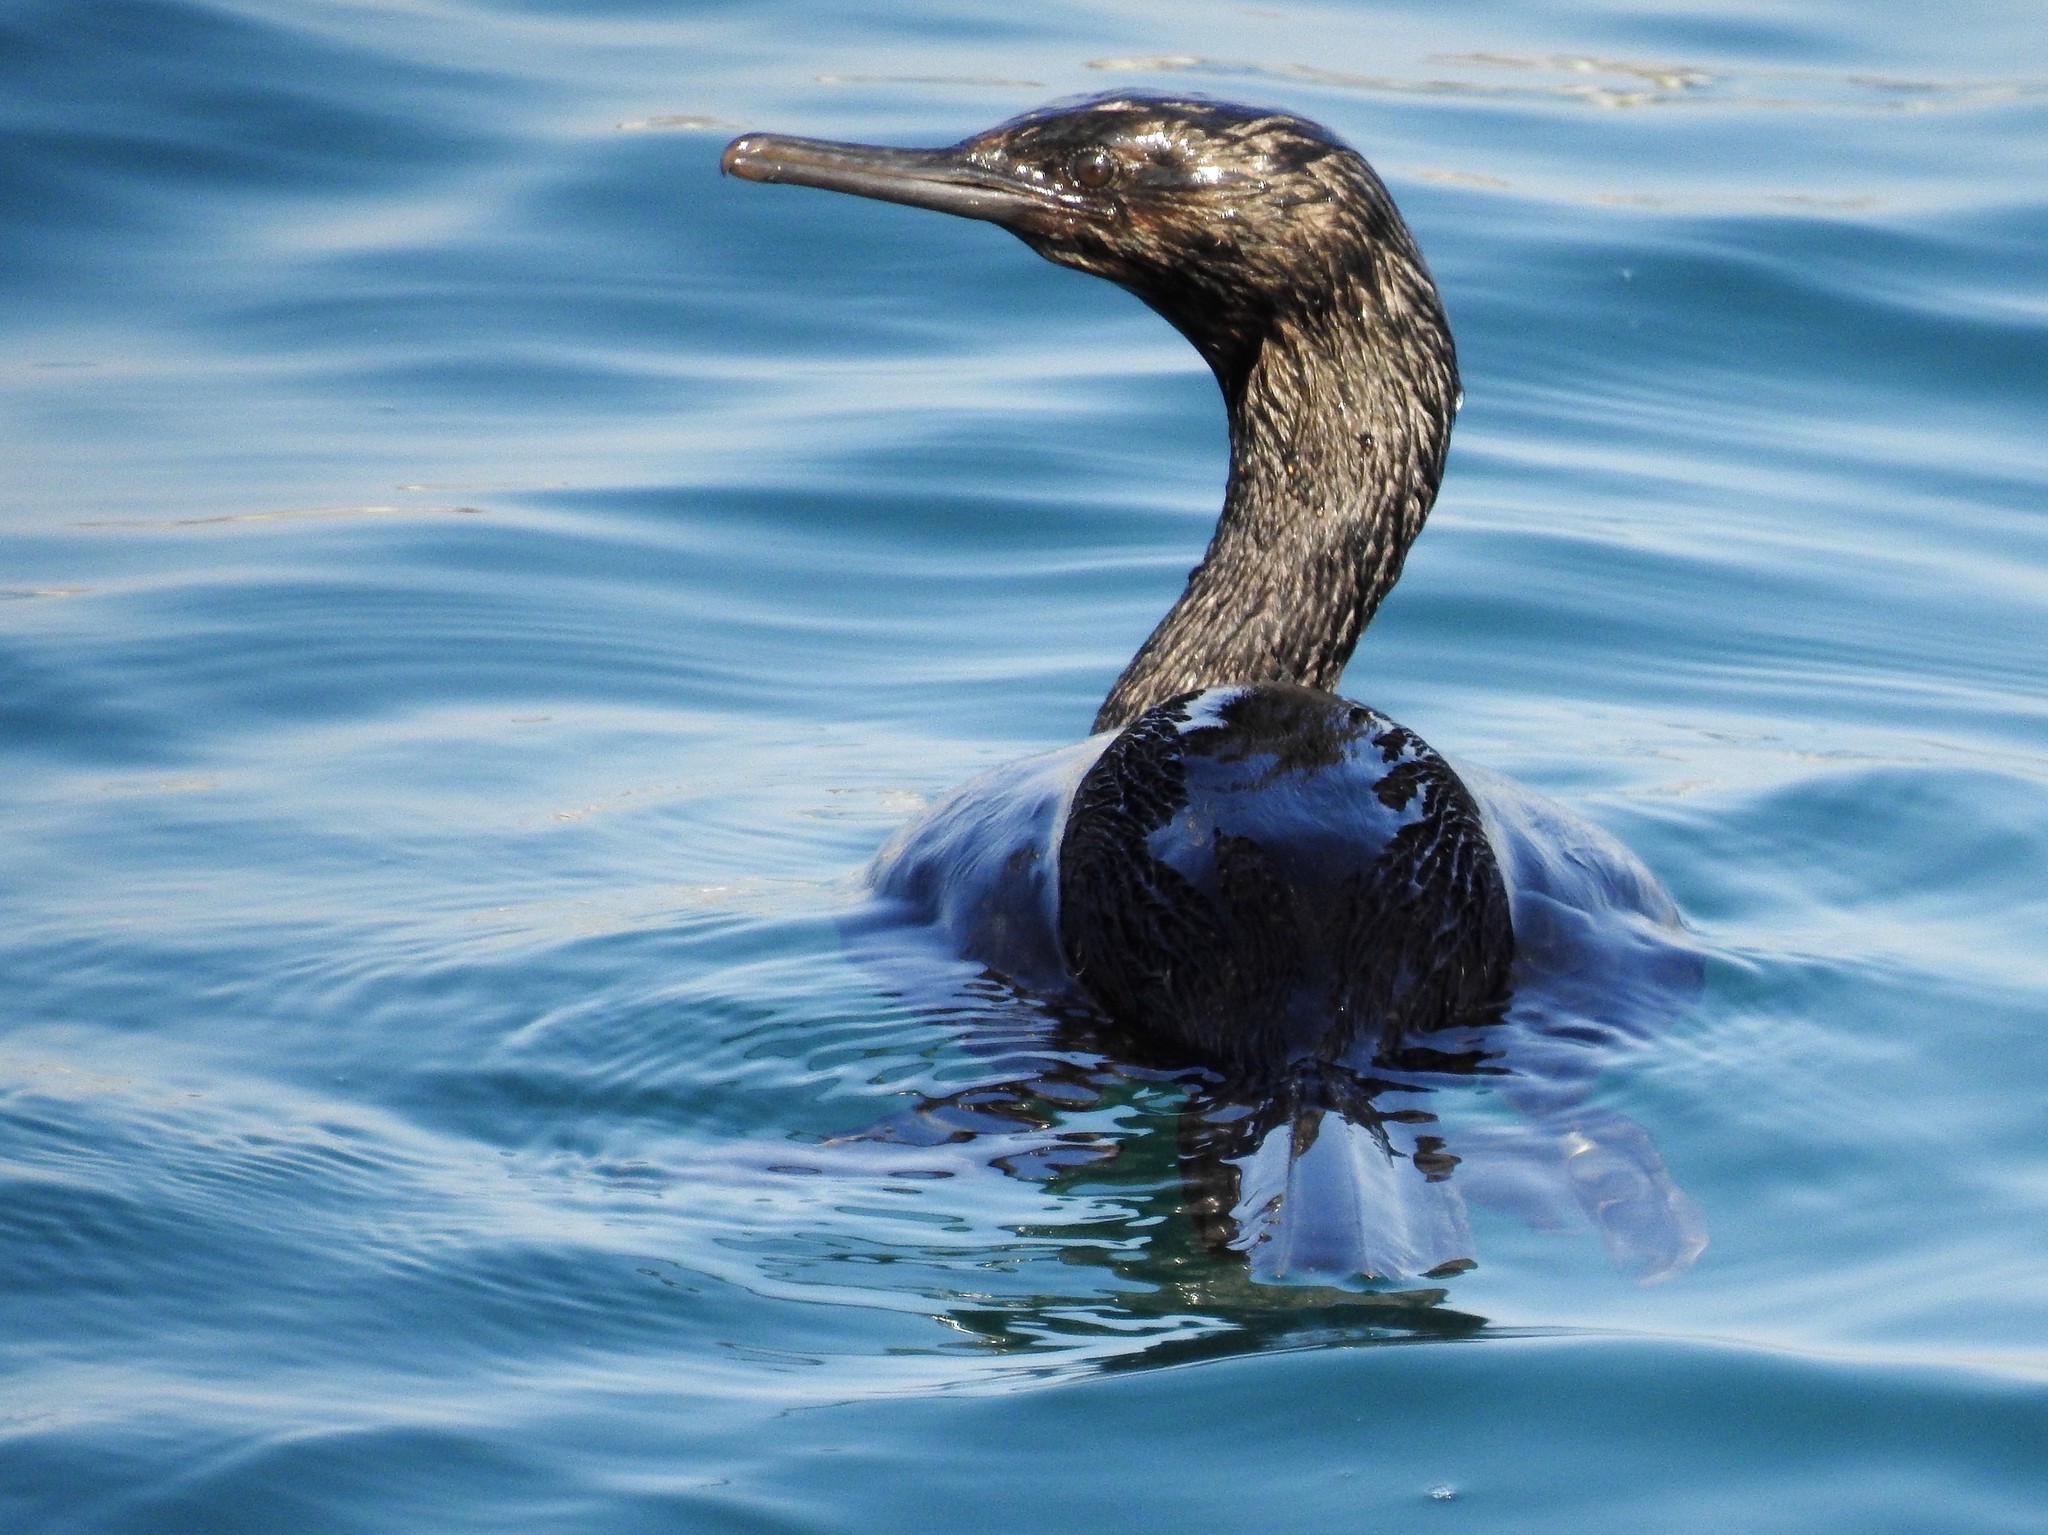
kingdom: Animalia
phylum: Chordata
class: Aves
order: Suliformes
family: Phalacrocoracidae
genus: Phalacrocorax
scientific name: Phalacrocorax pelagicus
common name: Pelagic cormorant
